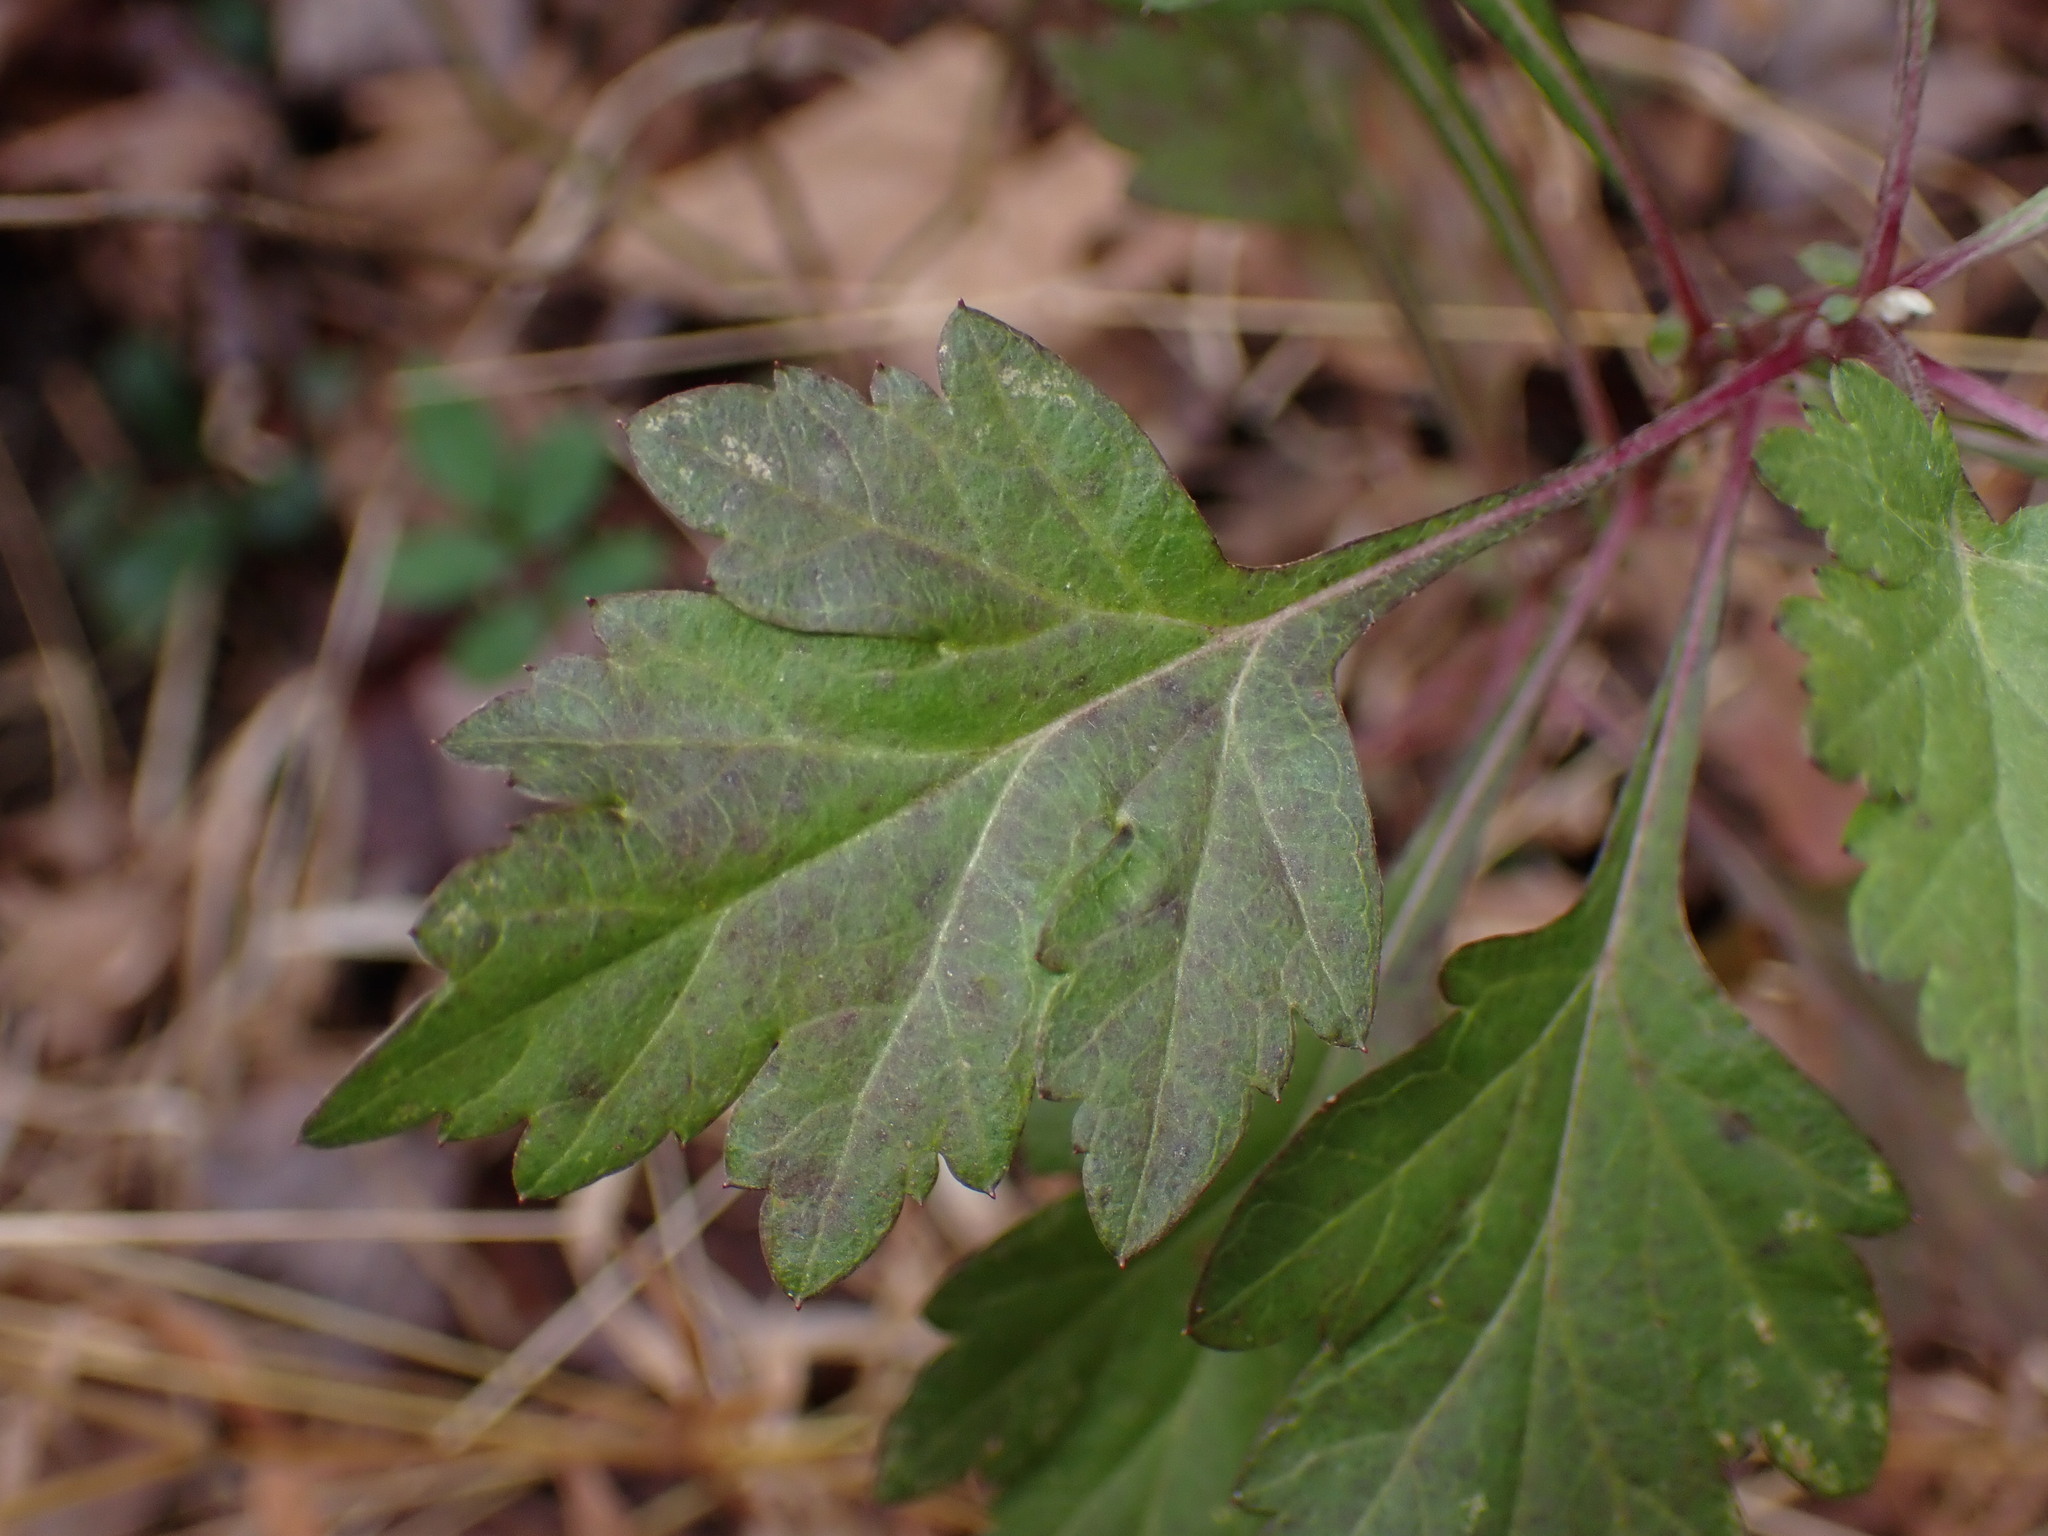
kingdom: Plantae
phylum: Tracheophyta
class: Magnoliopsida
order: Asterales
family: Asteraceae
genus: Artemisia
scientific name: Artemisia vulgaris
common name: Mugwort
